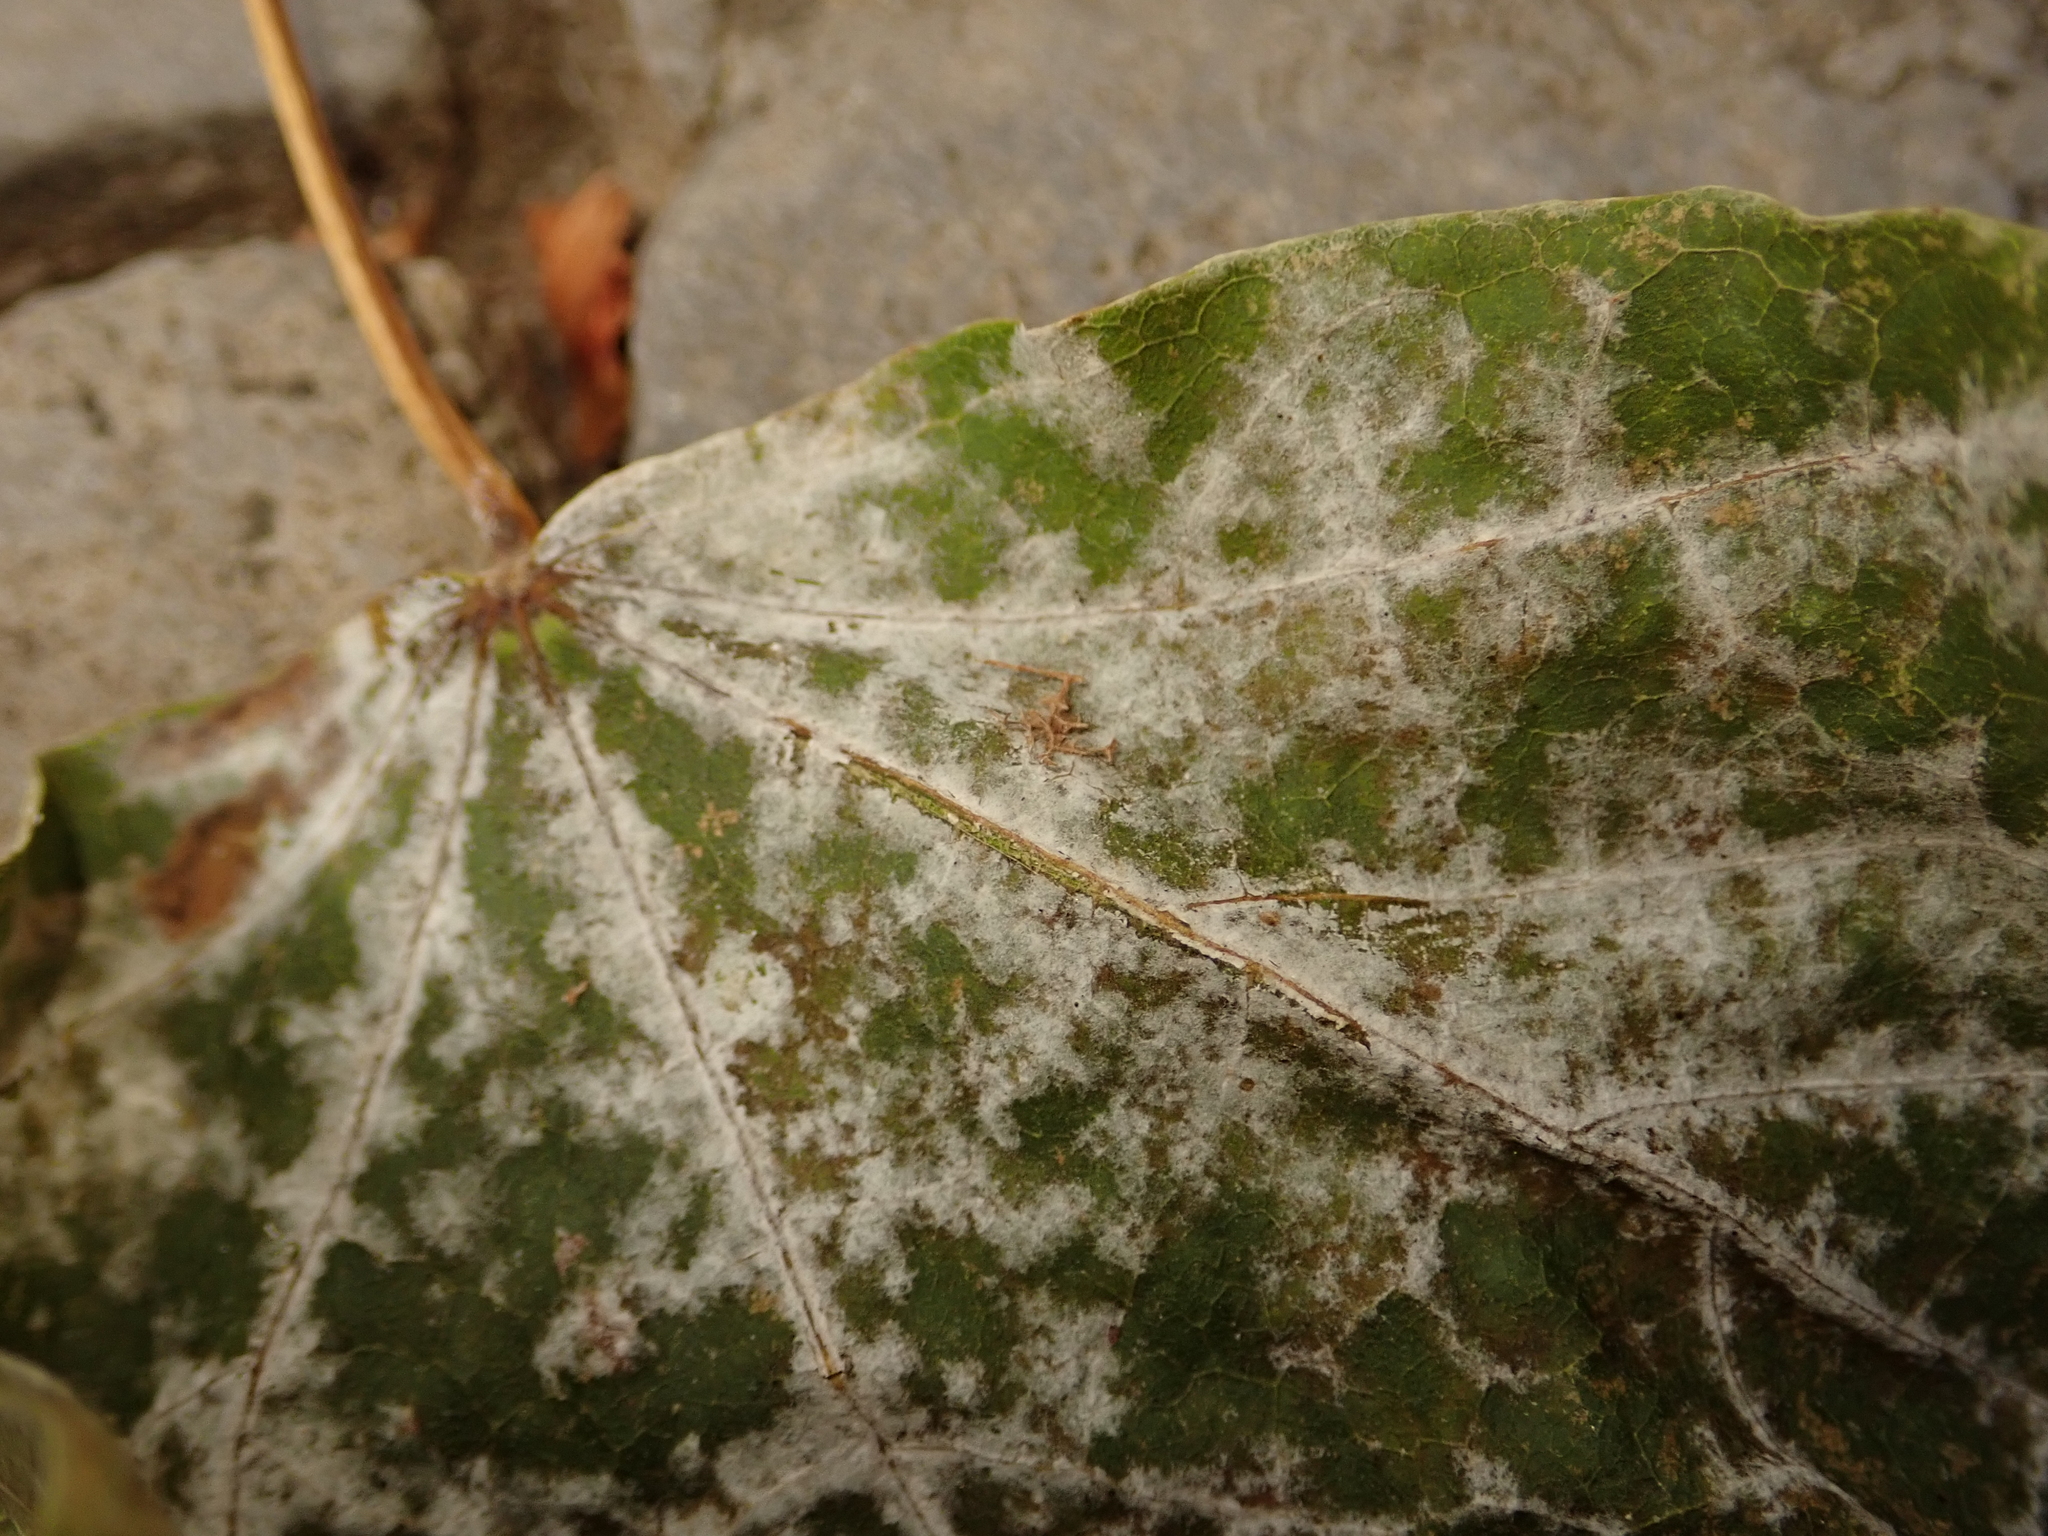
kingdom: Fungi
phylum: Ascomycota
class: Leotiomycetes
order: Helotiales
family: Erysiphaceae
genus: Sawadaea
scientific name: Sawadaea tulasnei
